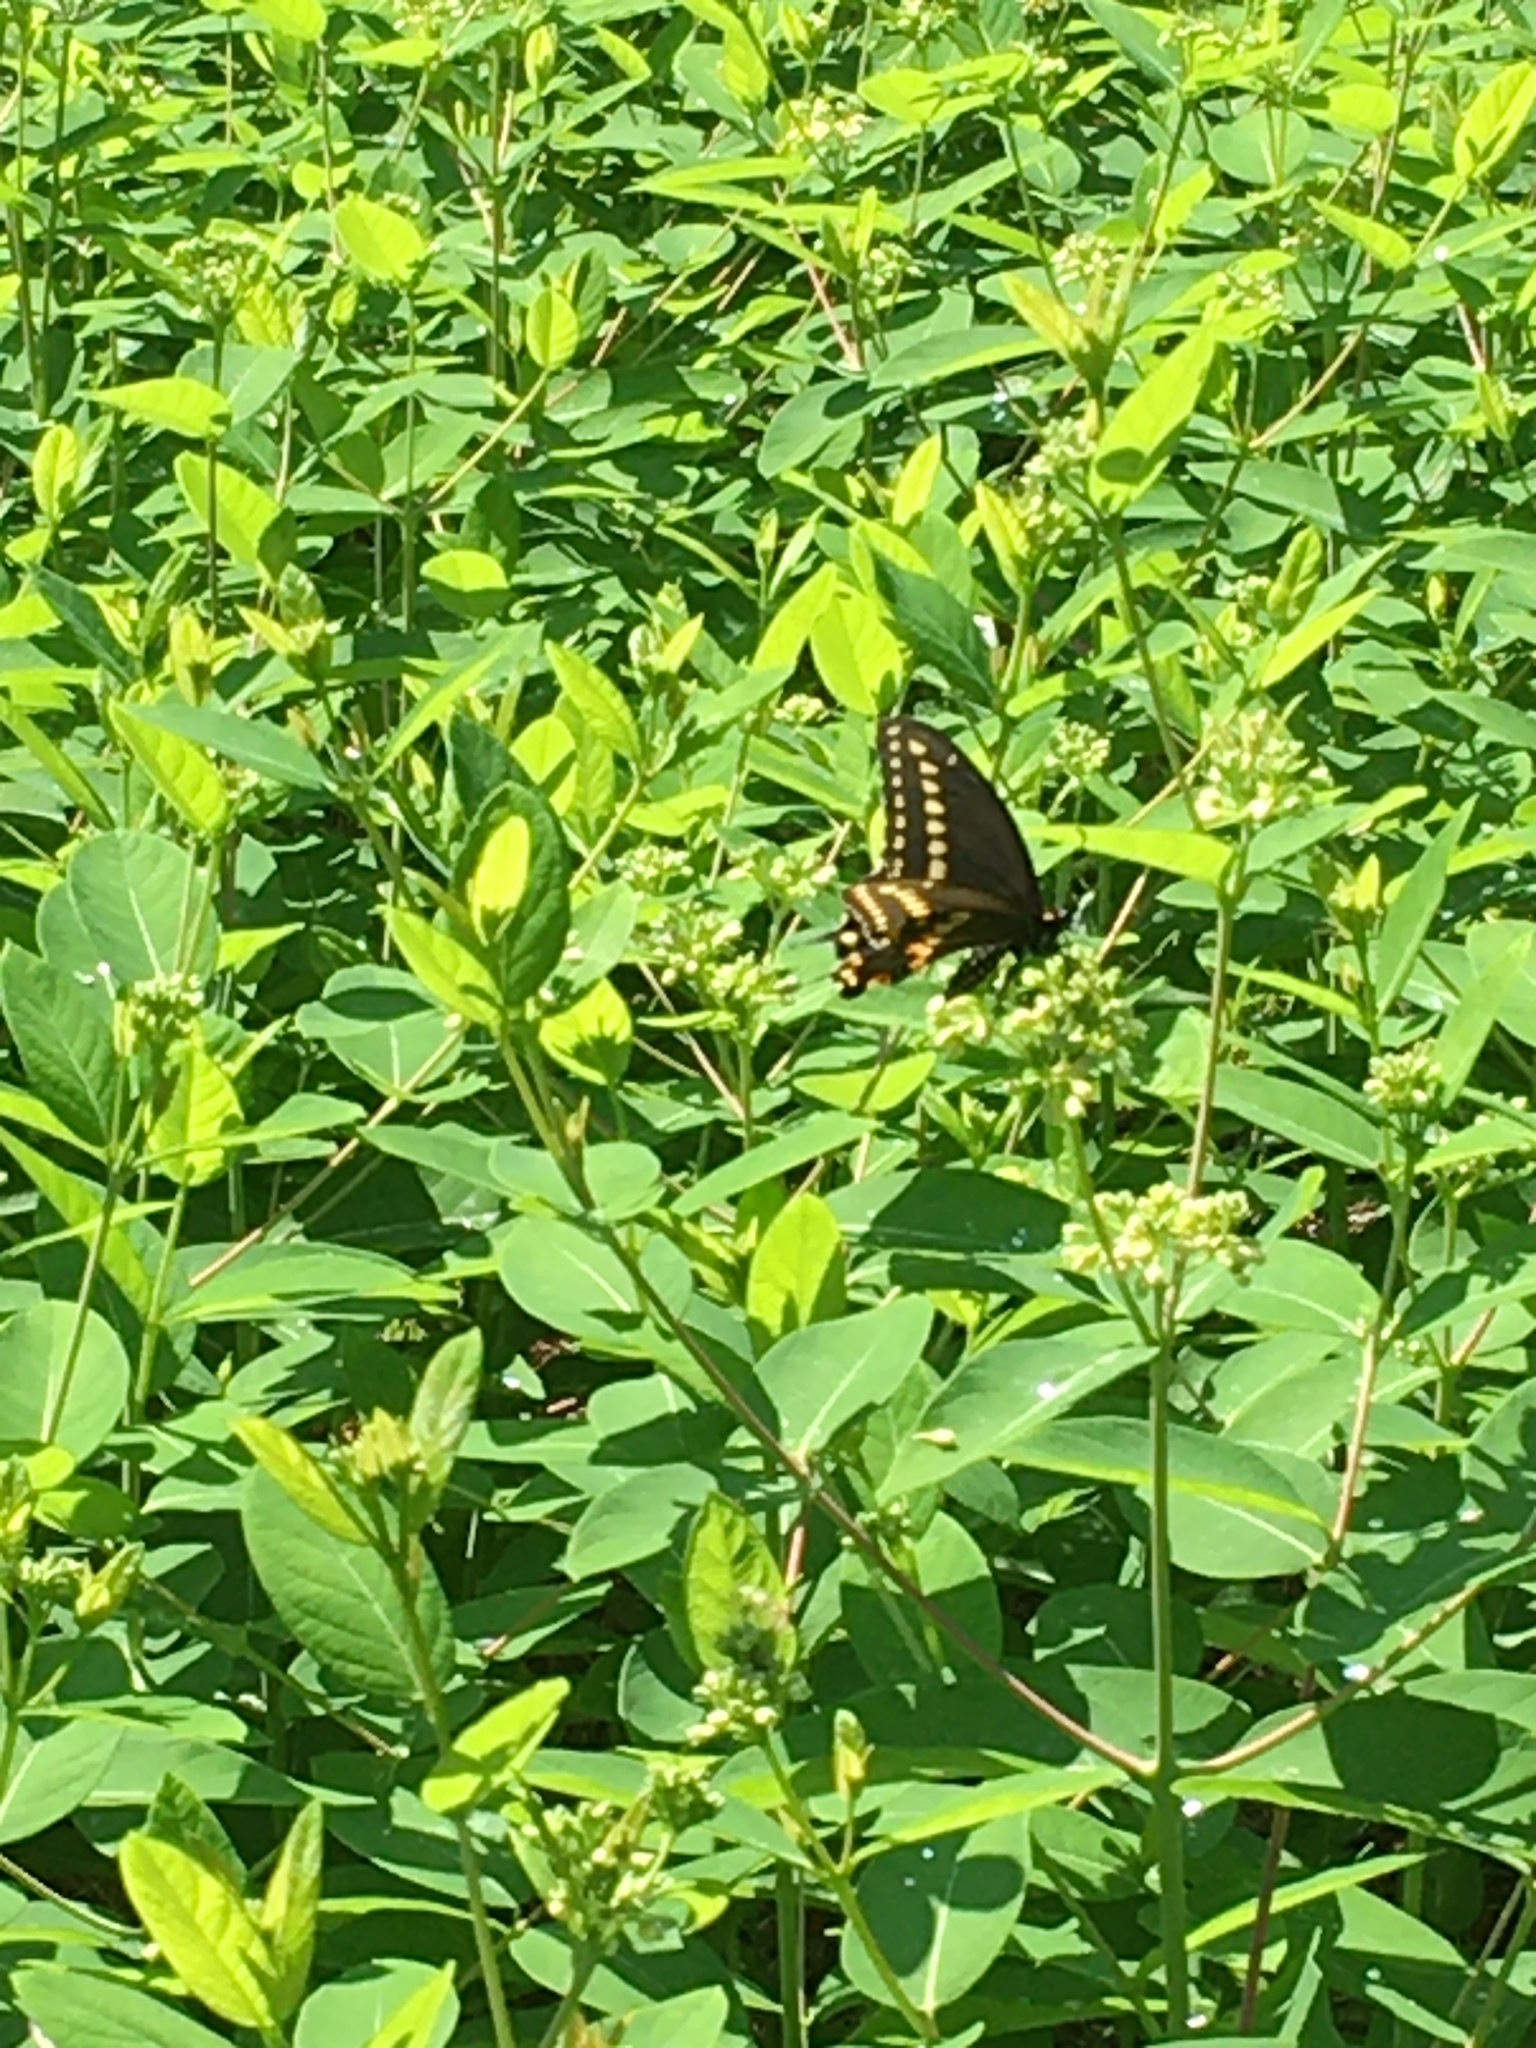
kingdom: Animalia
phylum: Arthropoda
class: Insecta
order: Lepidoptera
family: Papilionidae
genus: Papilio
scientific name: Papilio polyxenes
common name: Black swallowtail
